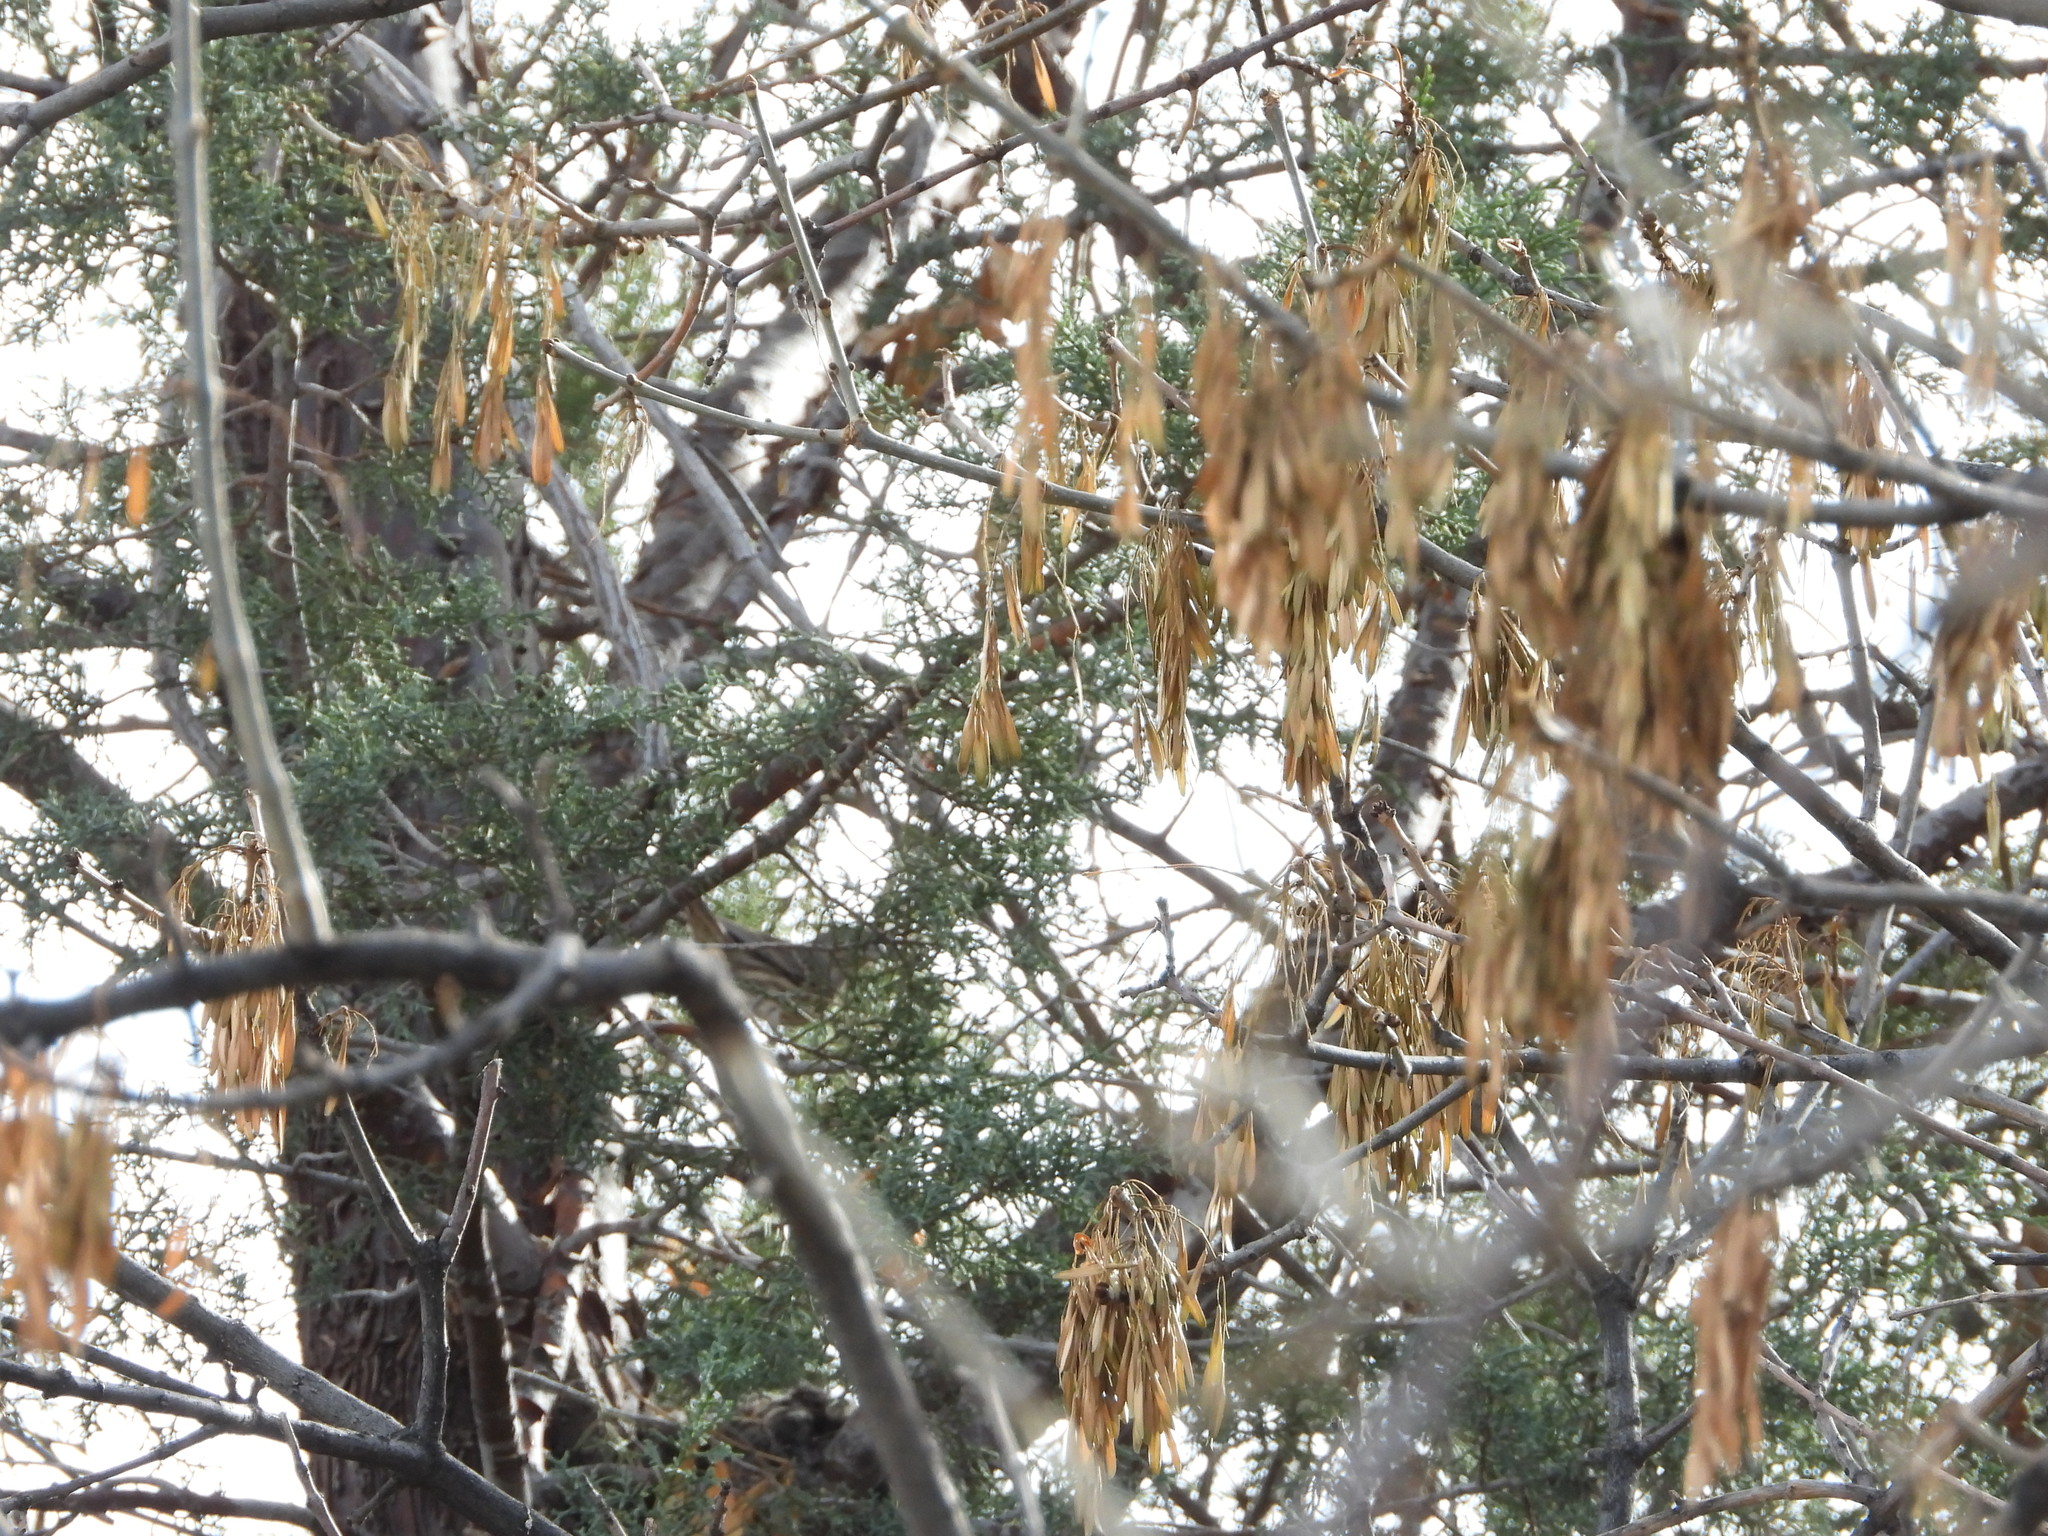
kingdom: Animalia
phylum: Chordata
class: Aves
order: Passeriformes
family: Fringillidae
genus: Haemorhous
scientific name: Haemorhous mexicanus
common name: House finch
